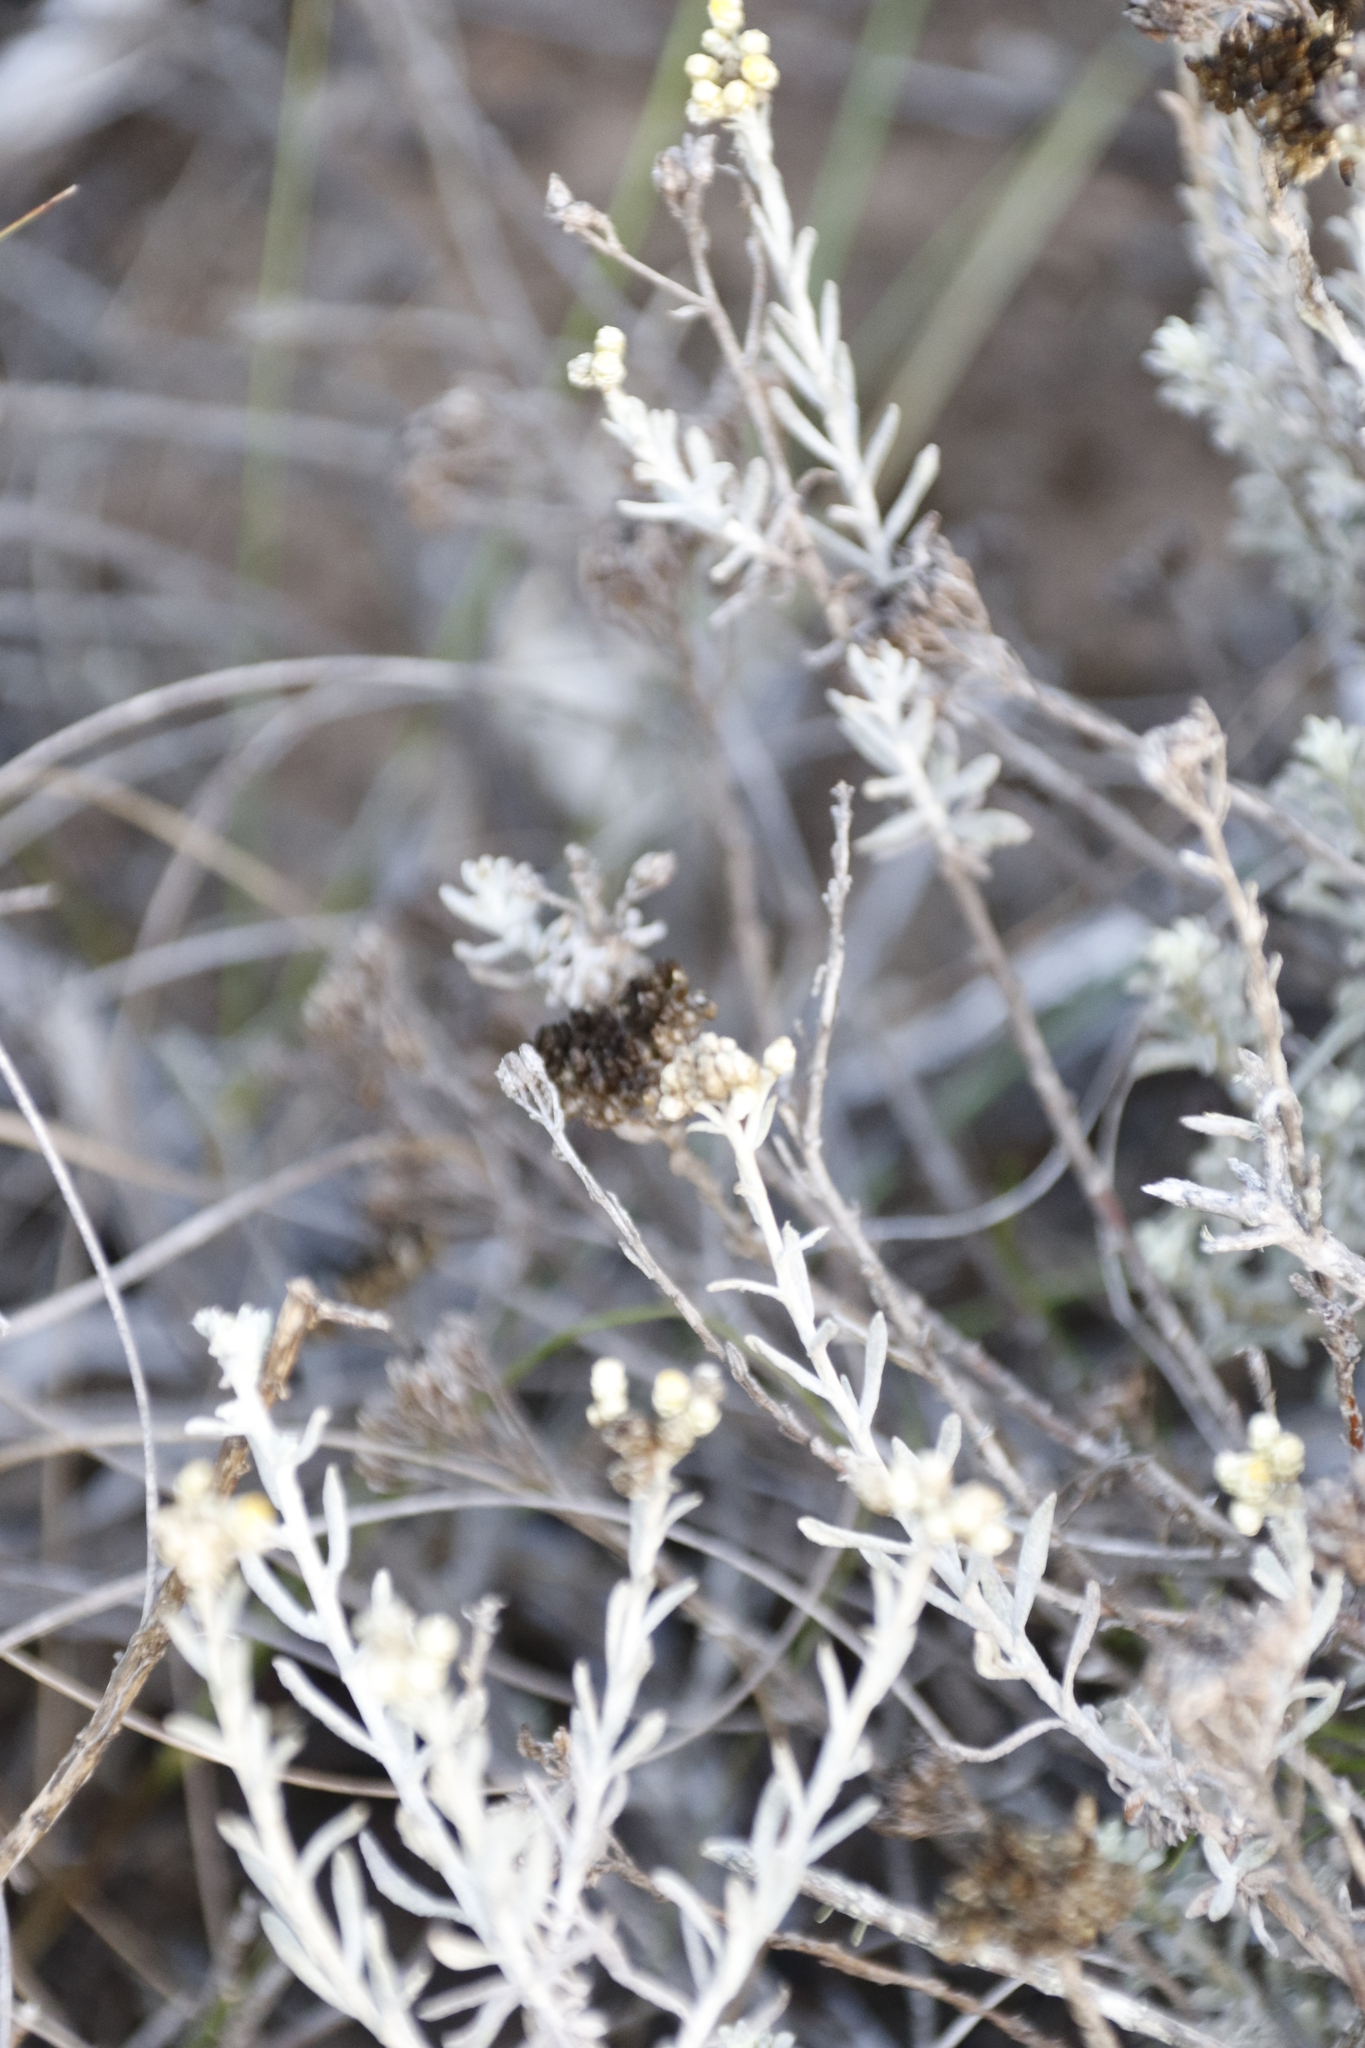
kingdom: Plantae
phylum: Tracheophyta
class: Magnoliopsida
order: Asterales
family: Asteraceae
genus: Helichrysum
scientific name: Helichrysum rosum
